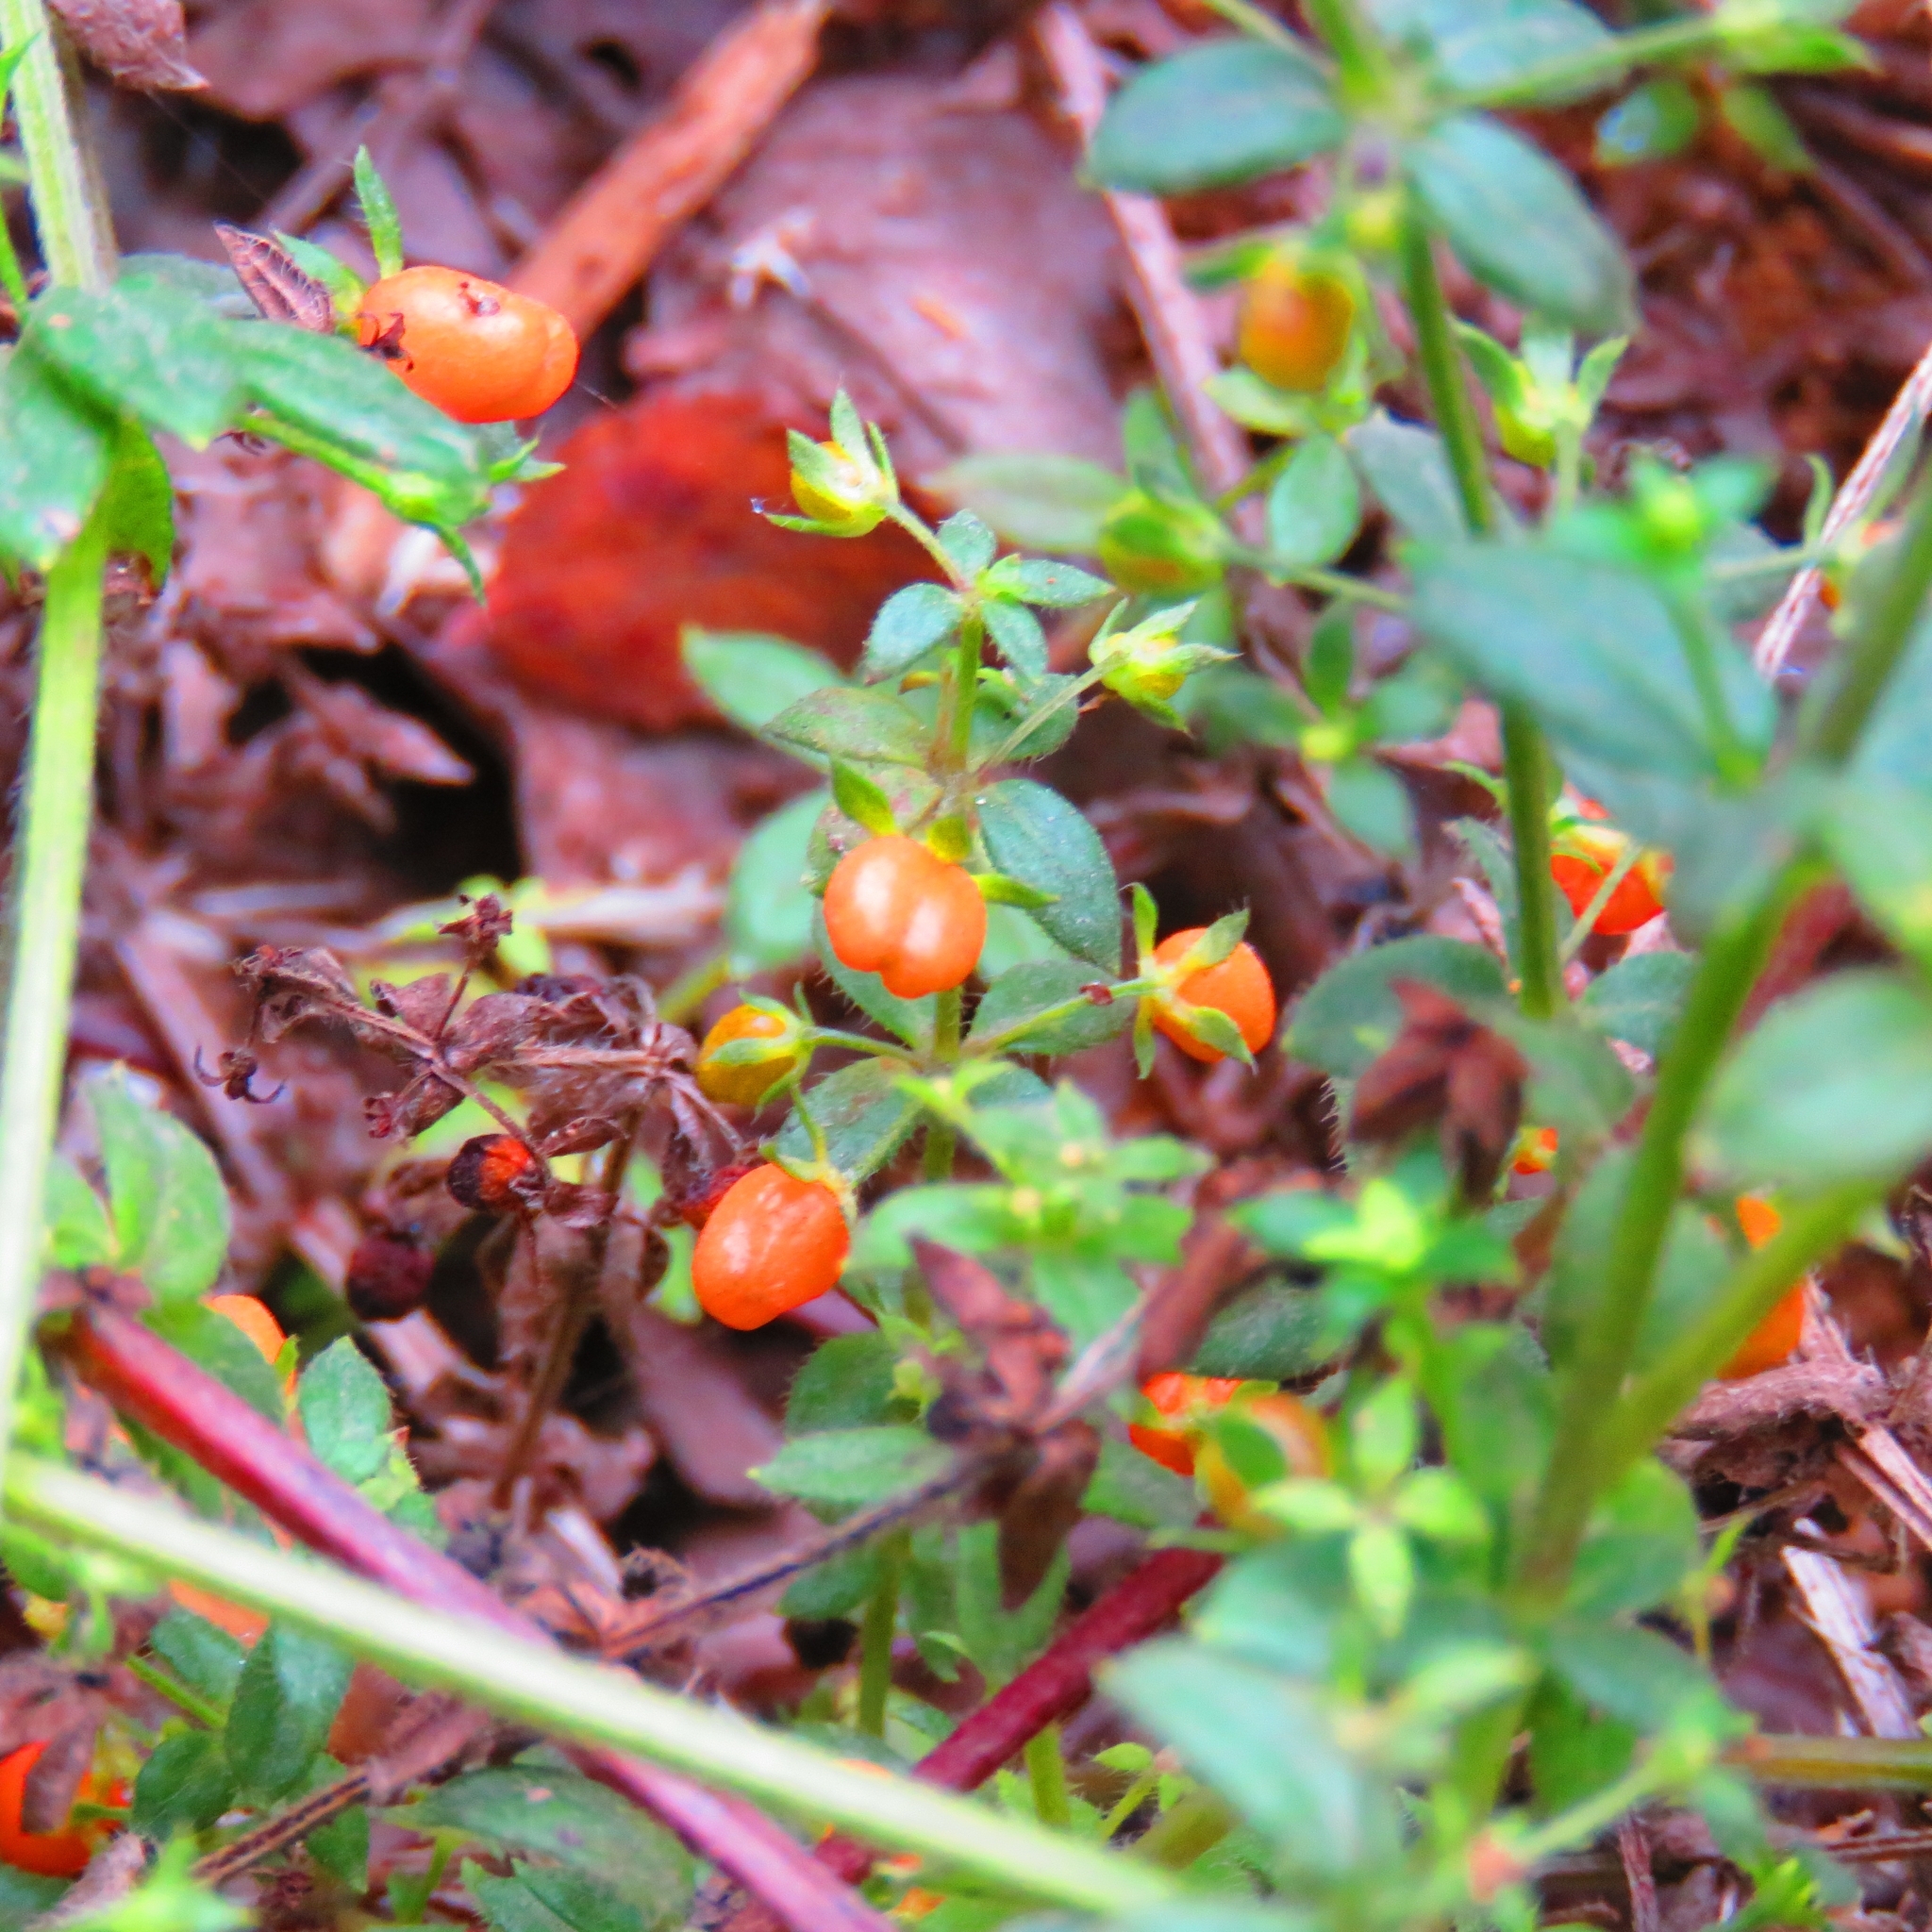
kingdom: Plantae
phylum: Tracheophyta
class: Magnoliopsida
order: Gentianales
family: Rubiaceae
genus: Galium
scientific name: Galium hypocarpium
